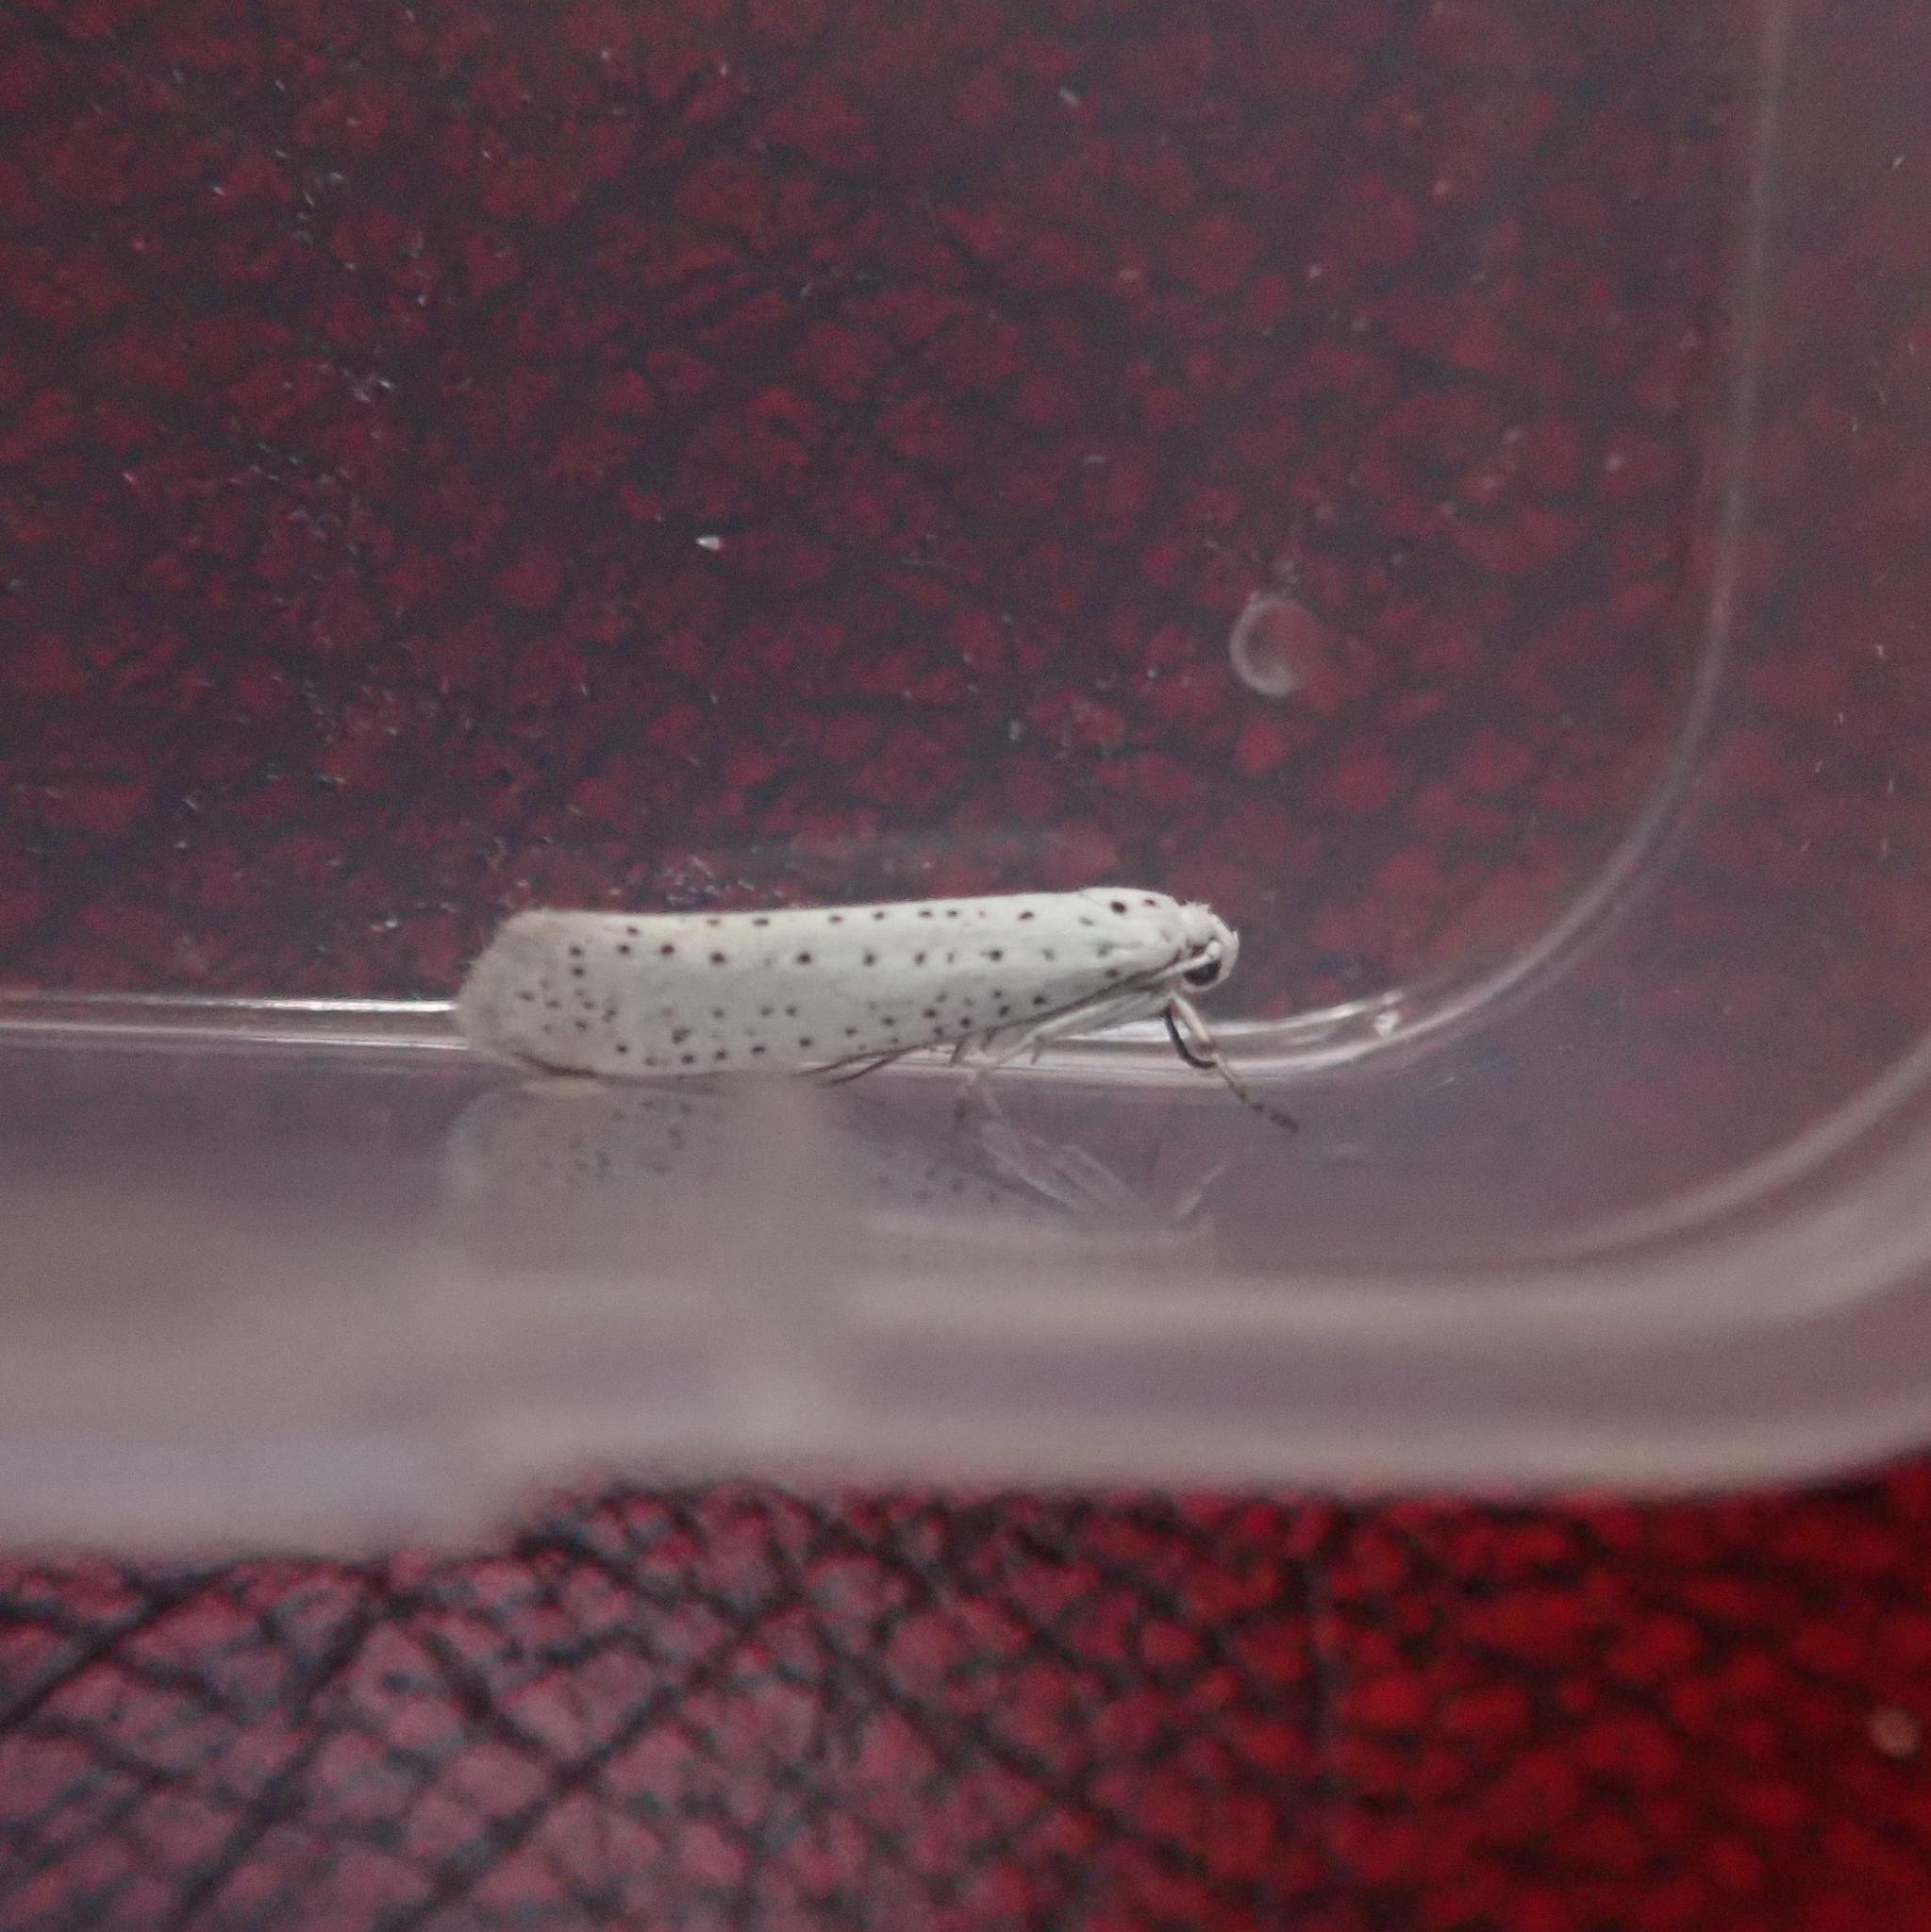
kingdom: Animalia
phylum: Arthropoda
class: Insecta
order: Lepidoptera
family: Yponomeutidae
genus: Yponomeuta
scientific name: Yponomeuta evonymella
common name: Bird-cherry ermine
